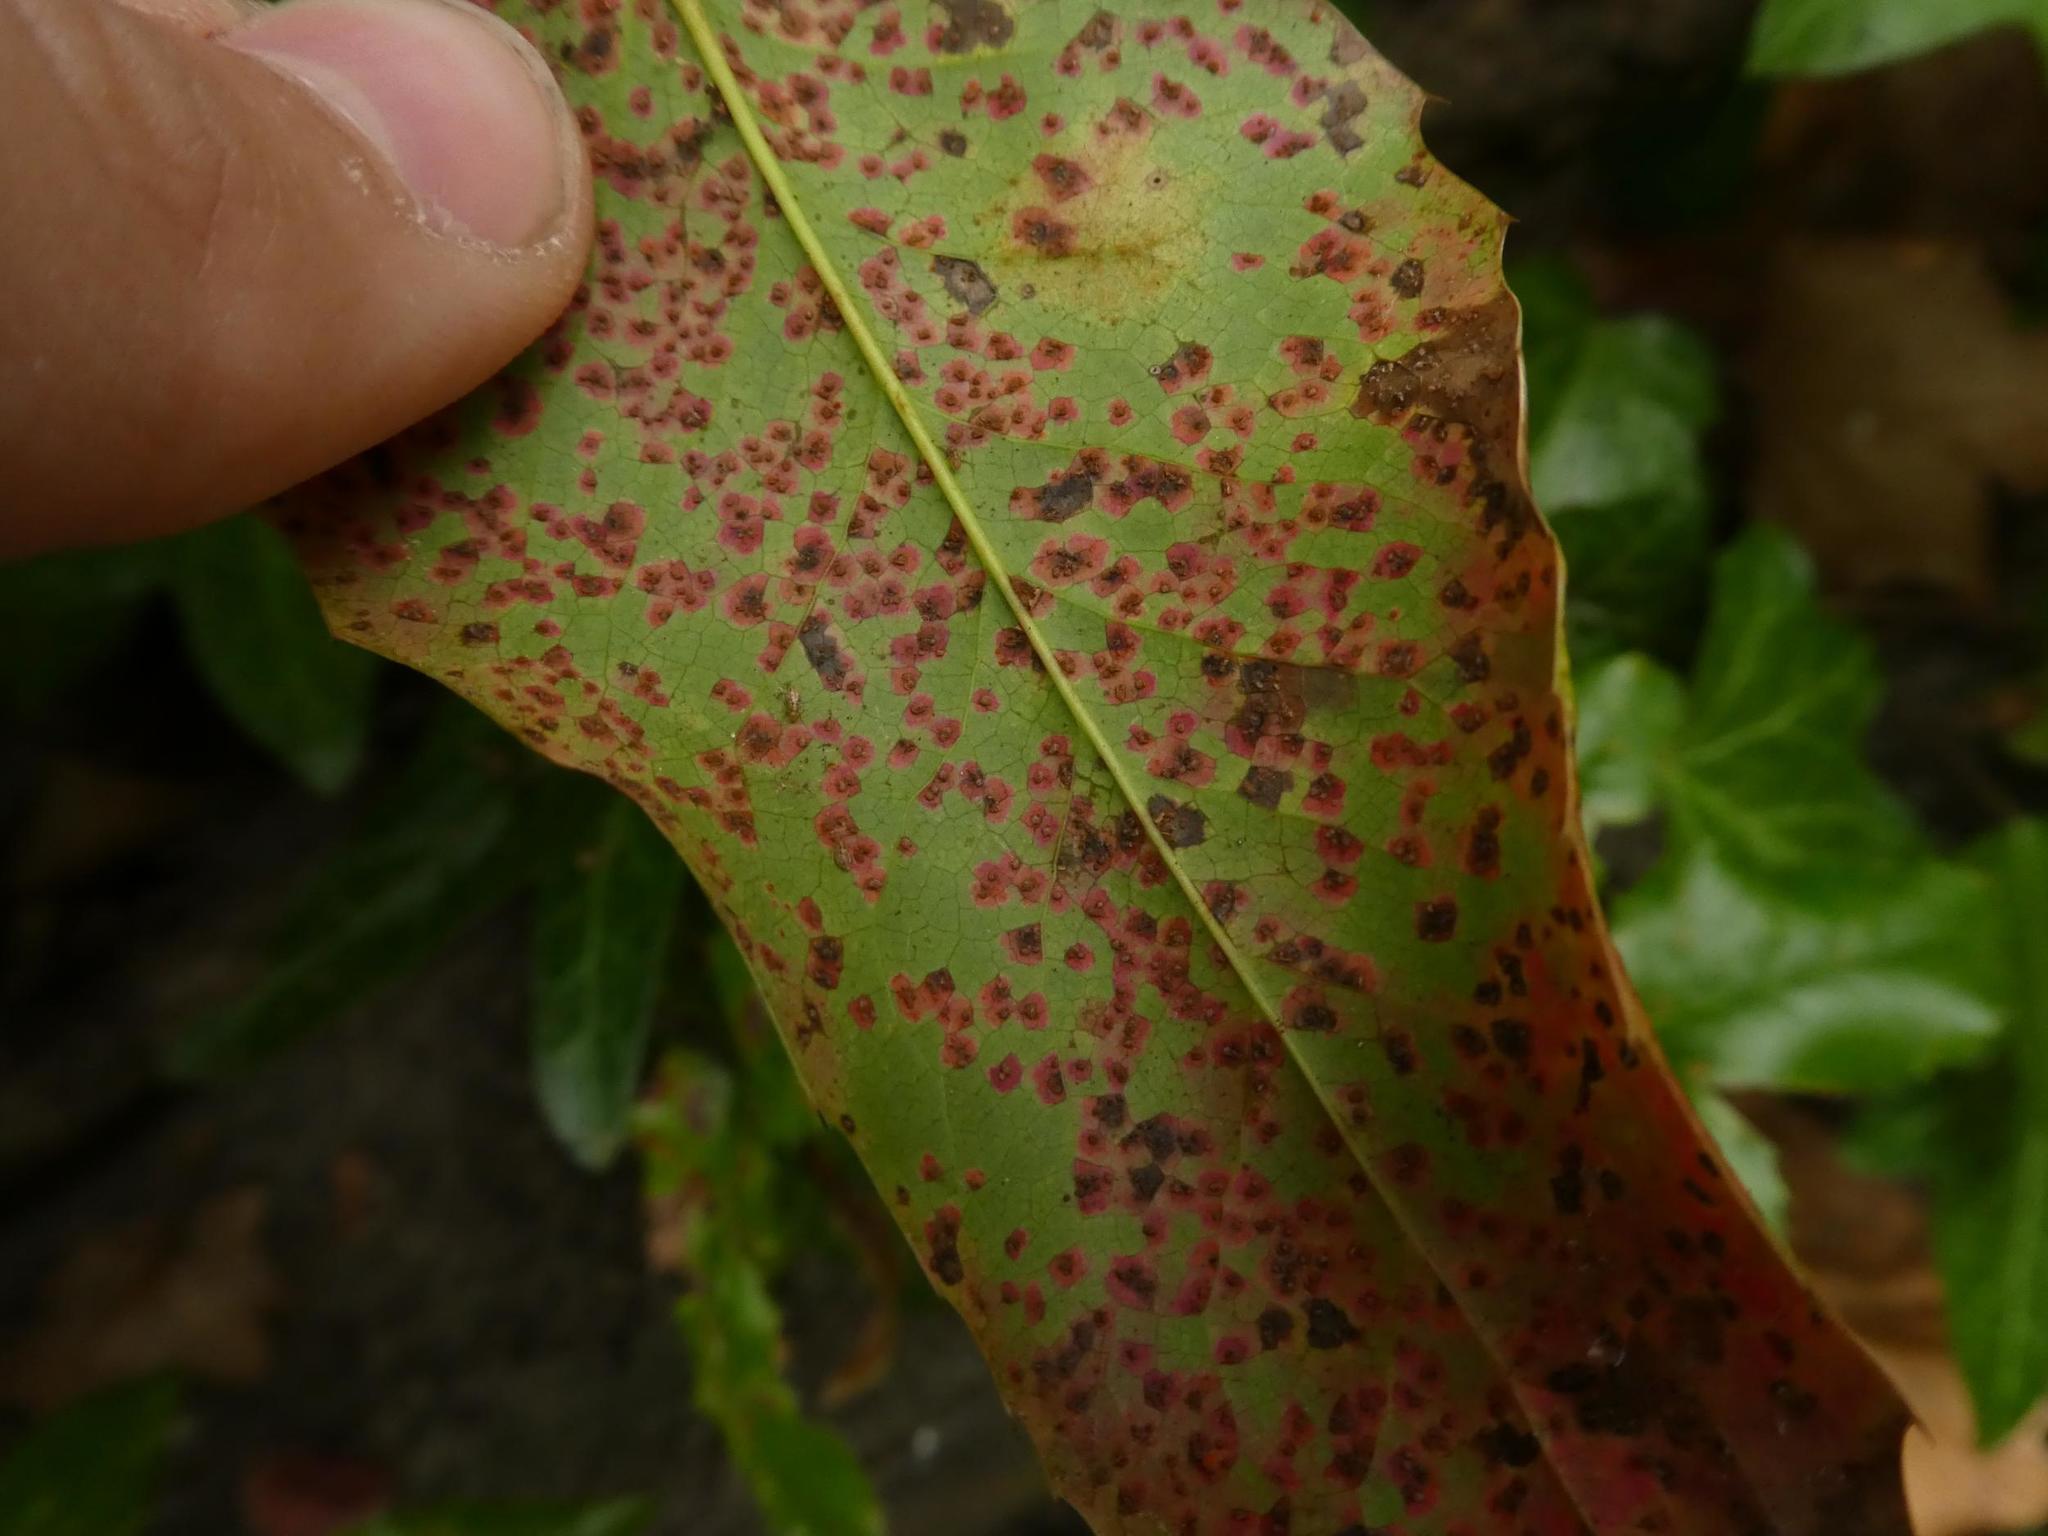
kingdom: Fungi
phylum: Basidiomycota
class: Pucciniomycetes
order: Pucciniales
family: Pucciniaceae
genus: Cumminsiella
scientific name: Cumminsiella mirabilissima
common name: Mahonia rust
